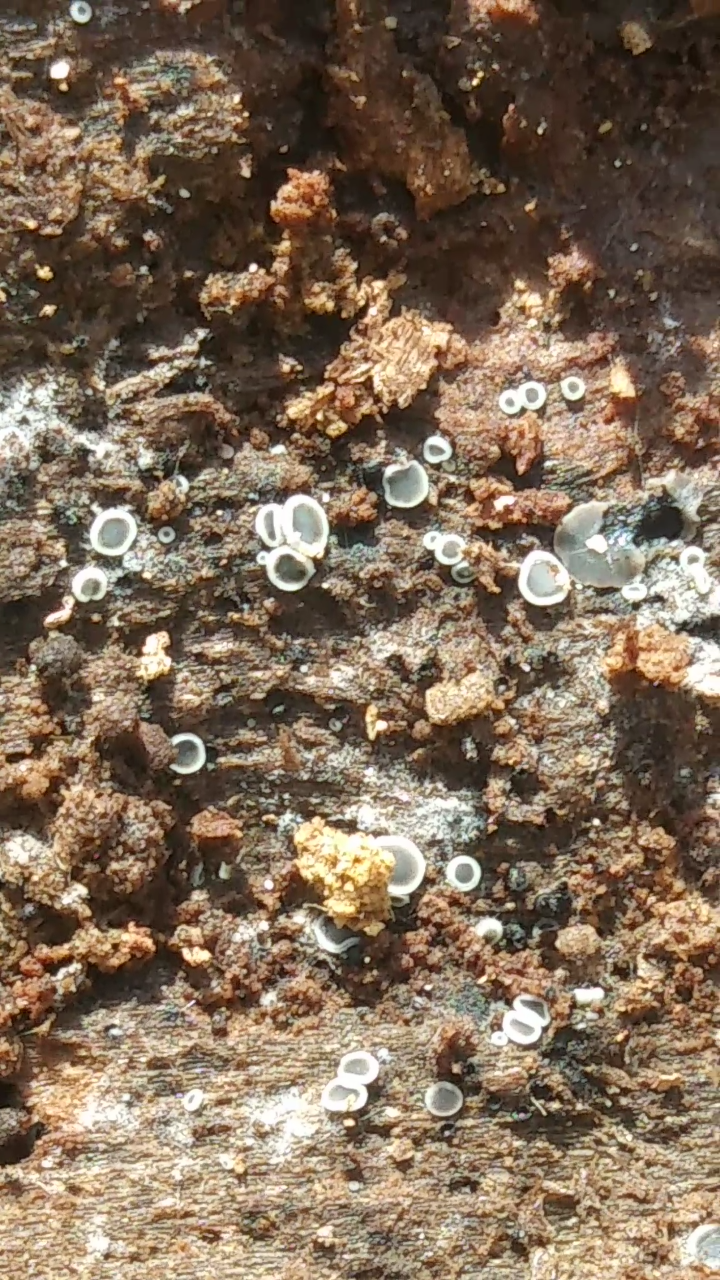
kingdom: Fungi
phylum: Ascomycota
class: Leotiomycetes
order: Helotiales
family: Mollisiaceae
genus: Mollisia
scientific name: Mollisia cinerea
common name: Common grey disco
